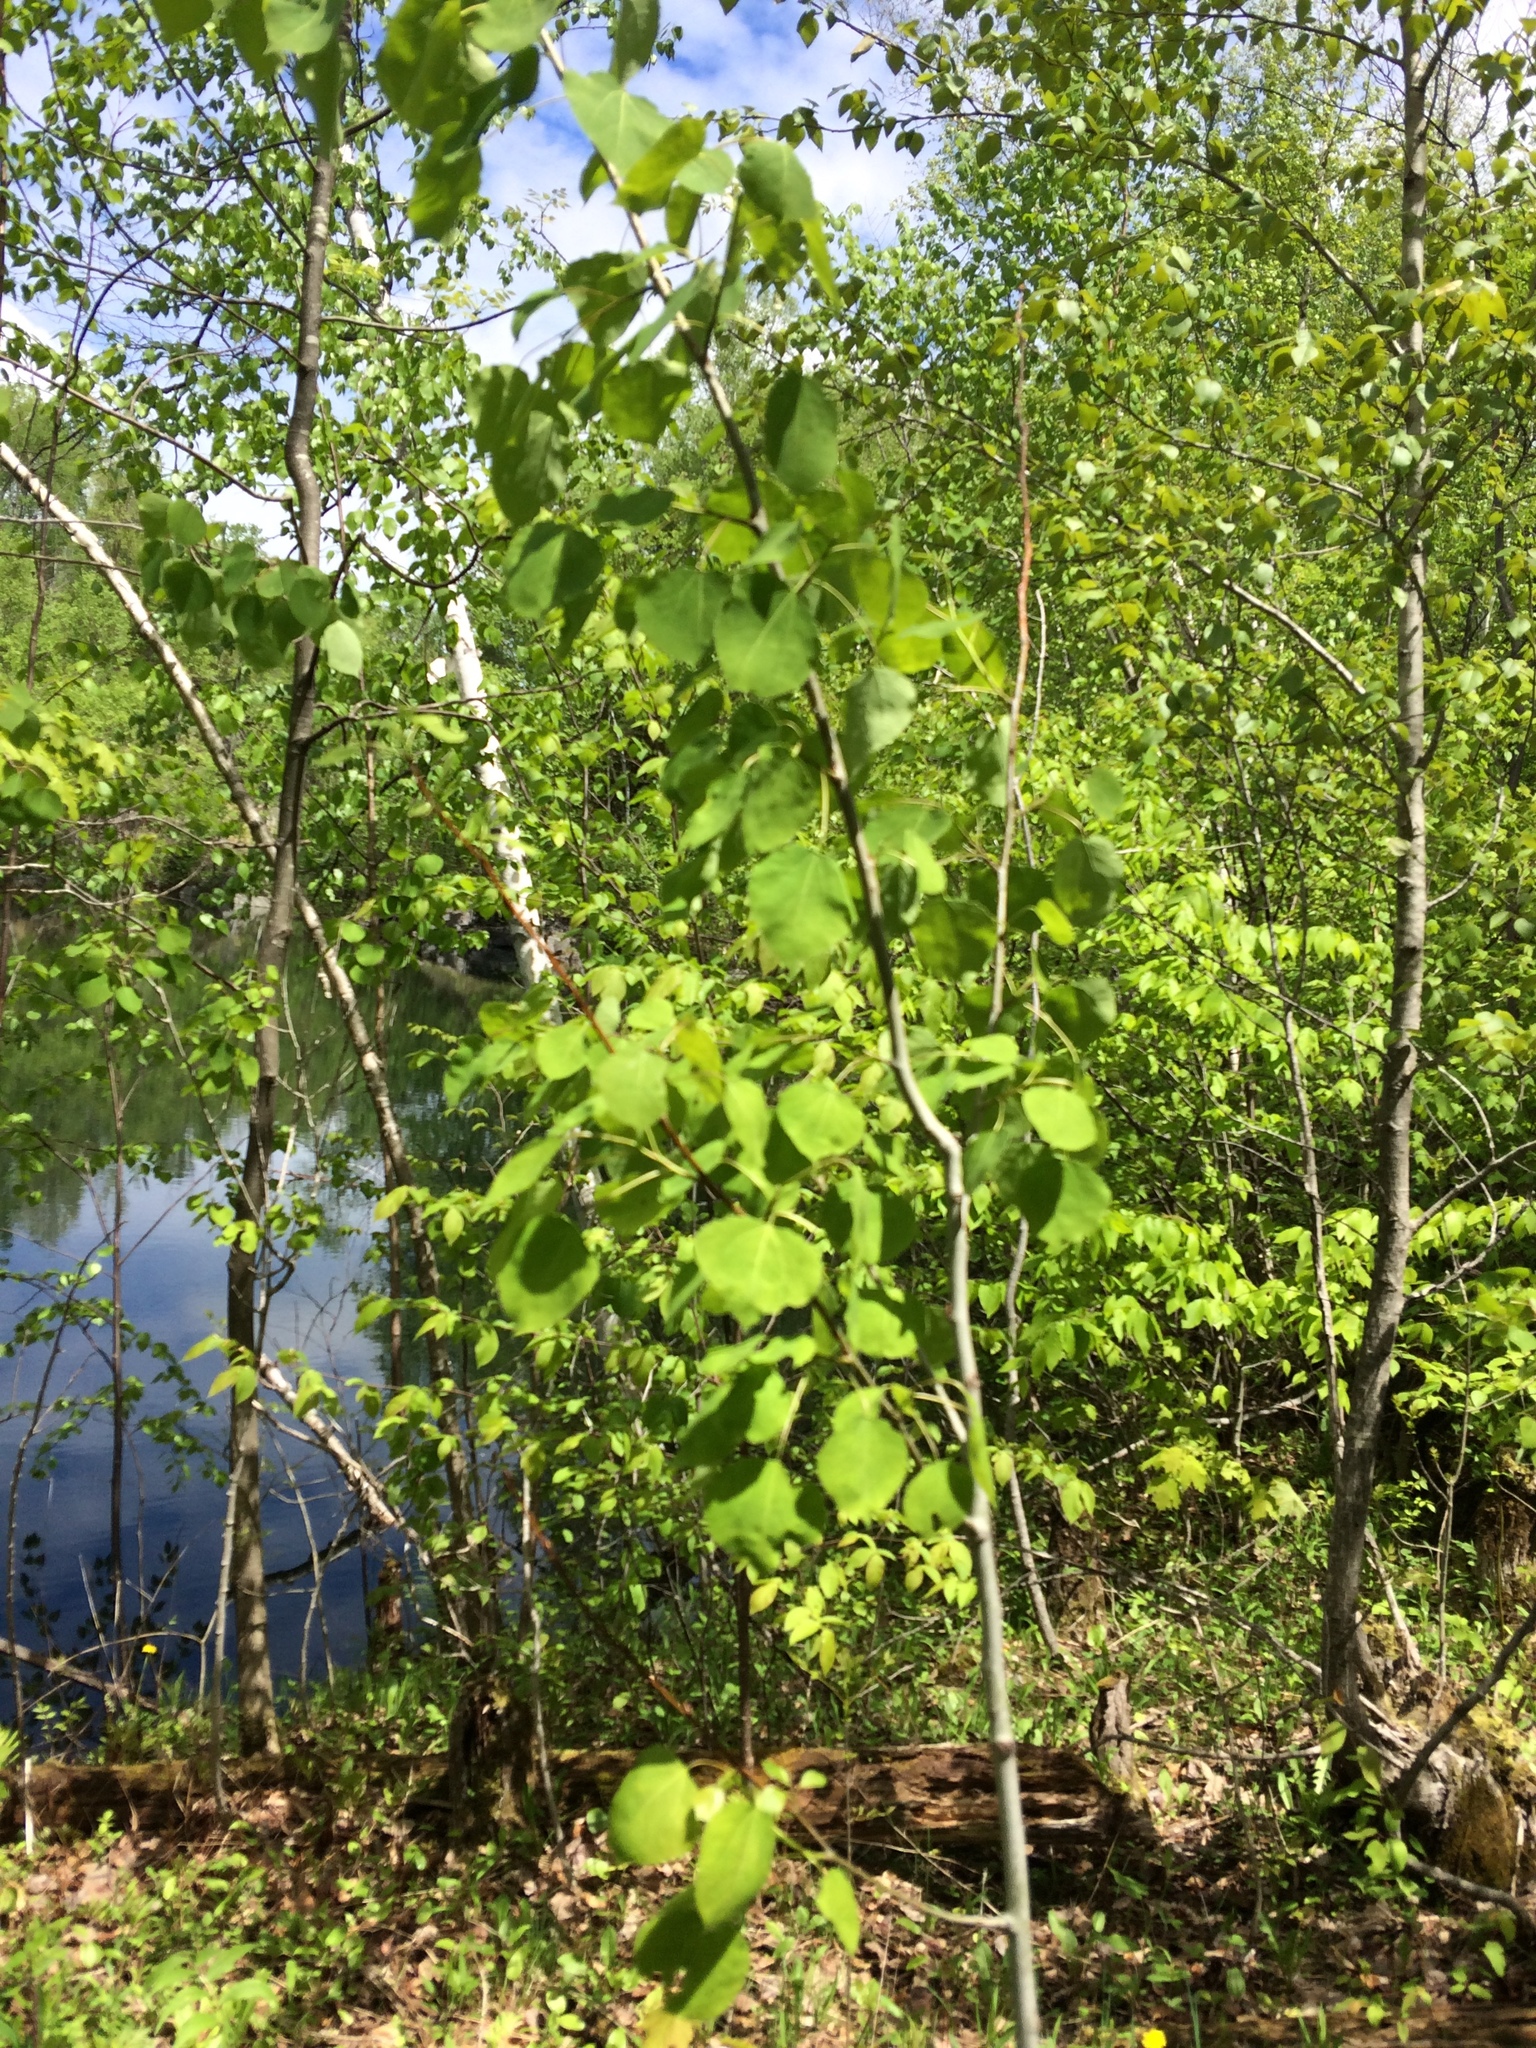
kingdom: Plantae
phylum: Tracheophyta
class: Magnoliopsida
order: Malpighiales
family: Salicaceae
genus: Populus
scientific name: Populus tremuloides
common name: Quaking aspen
